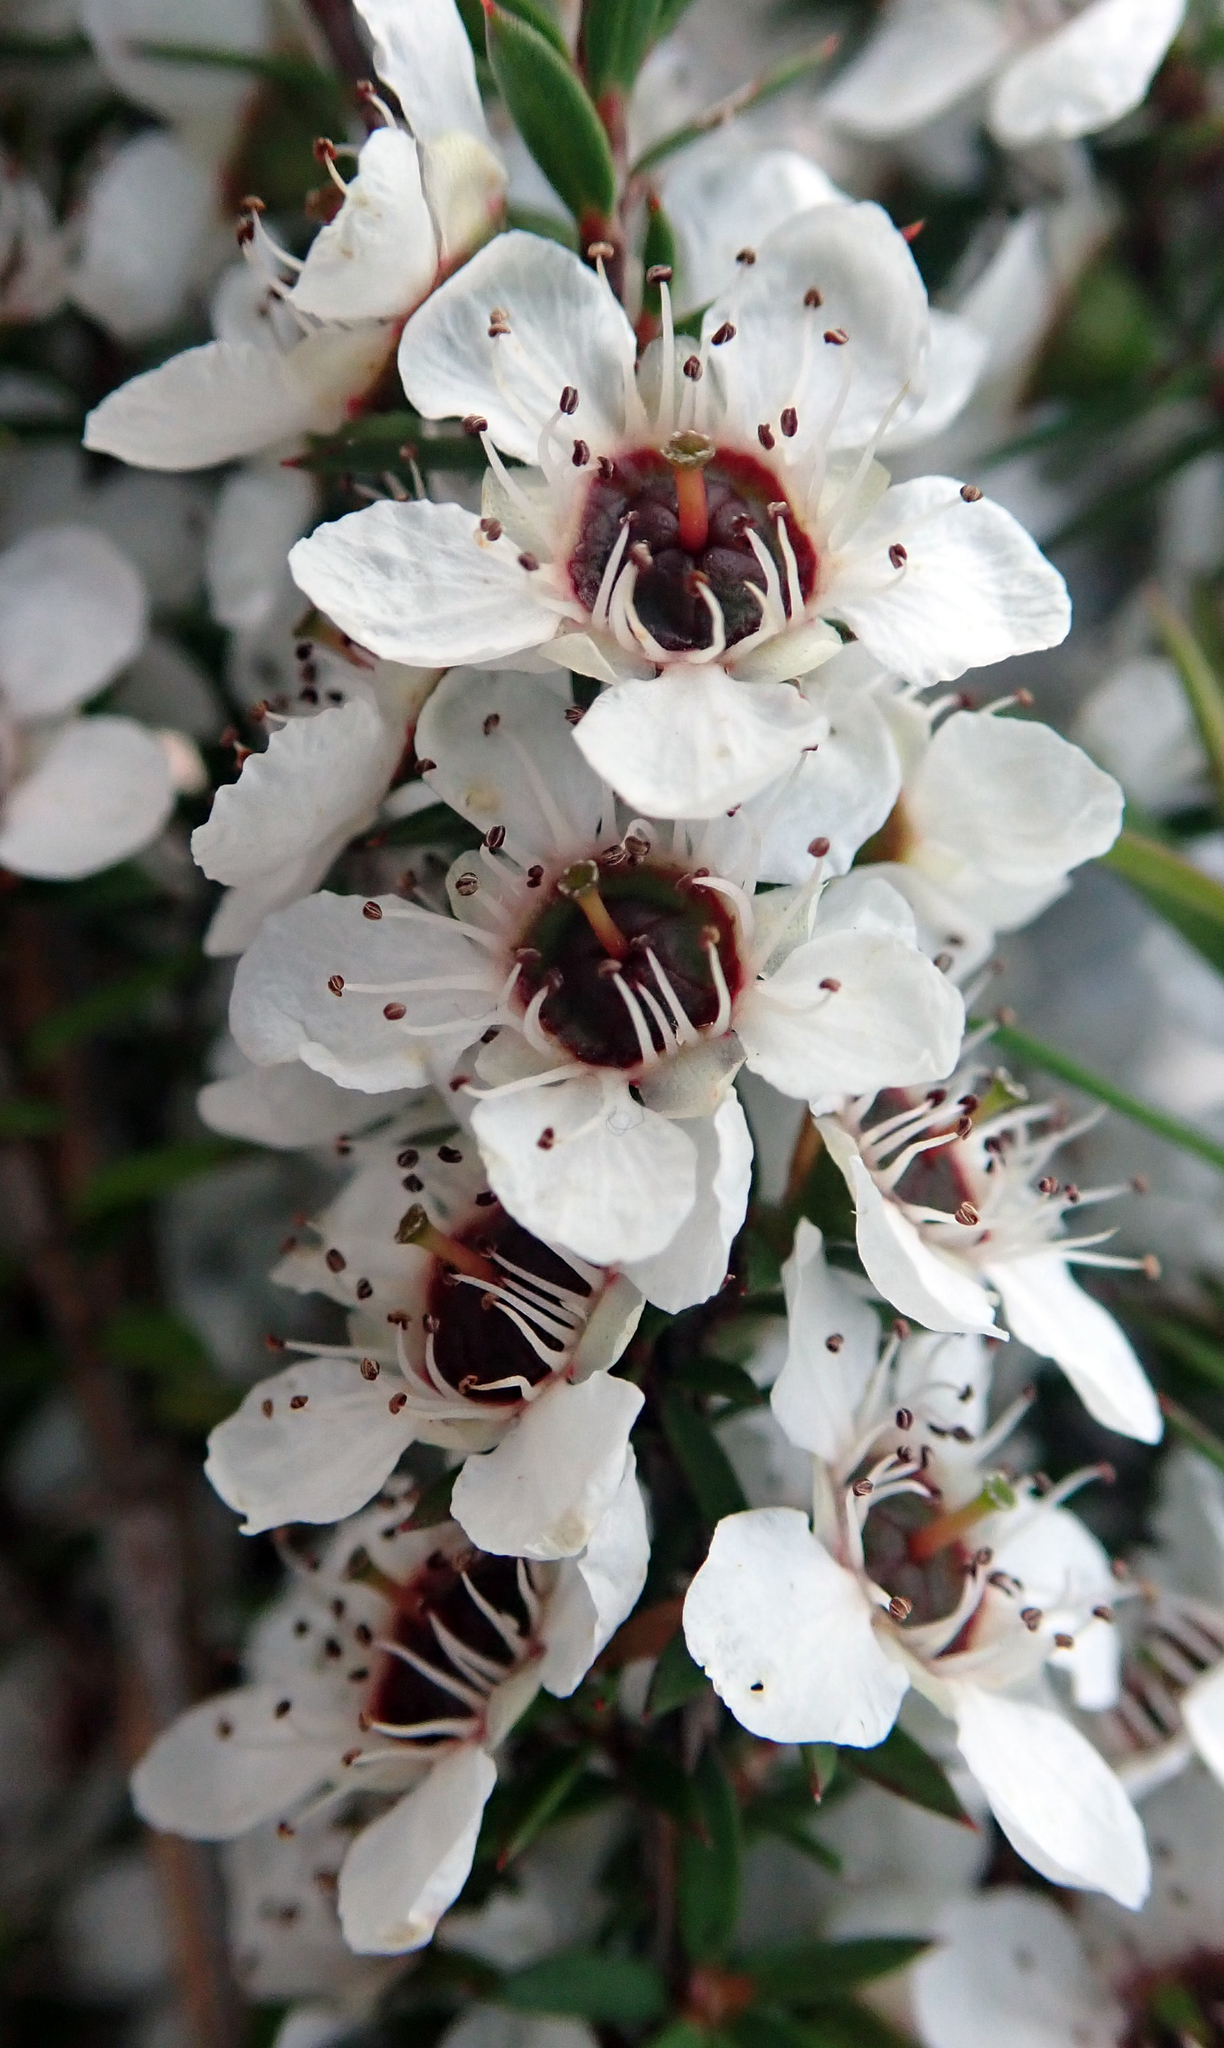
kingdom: Plantae
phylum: Tracheophyta
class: Magnoliopsida
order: Myrtales
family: Myrtaceae
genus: Leptospermum
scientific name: Leptospermum scoparium
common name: Broom tea-tree
